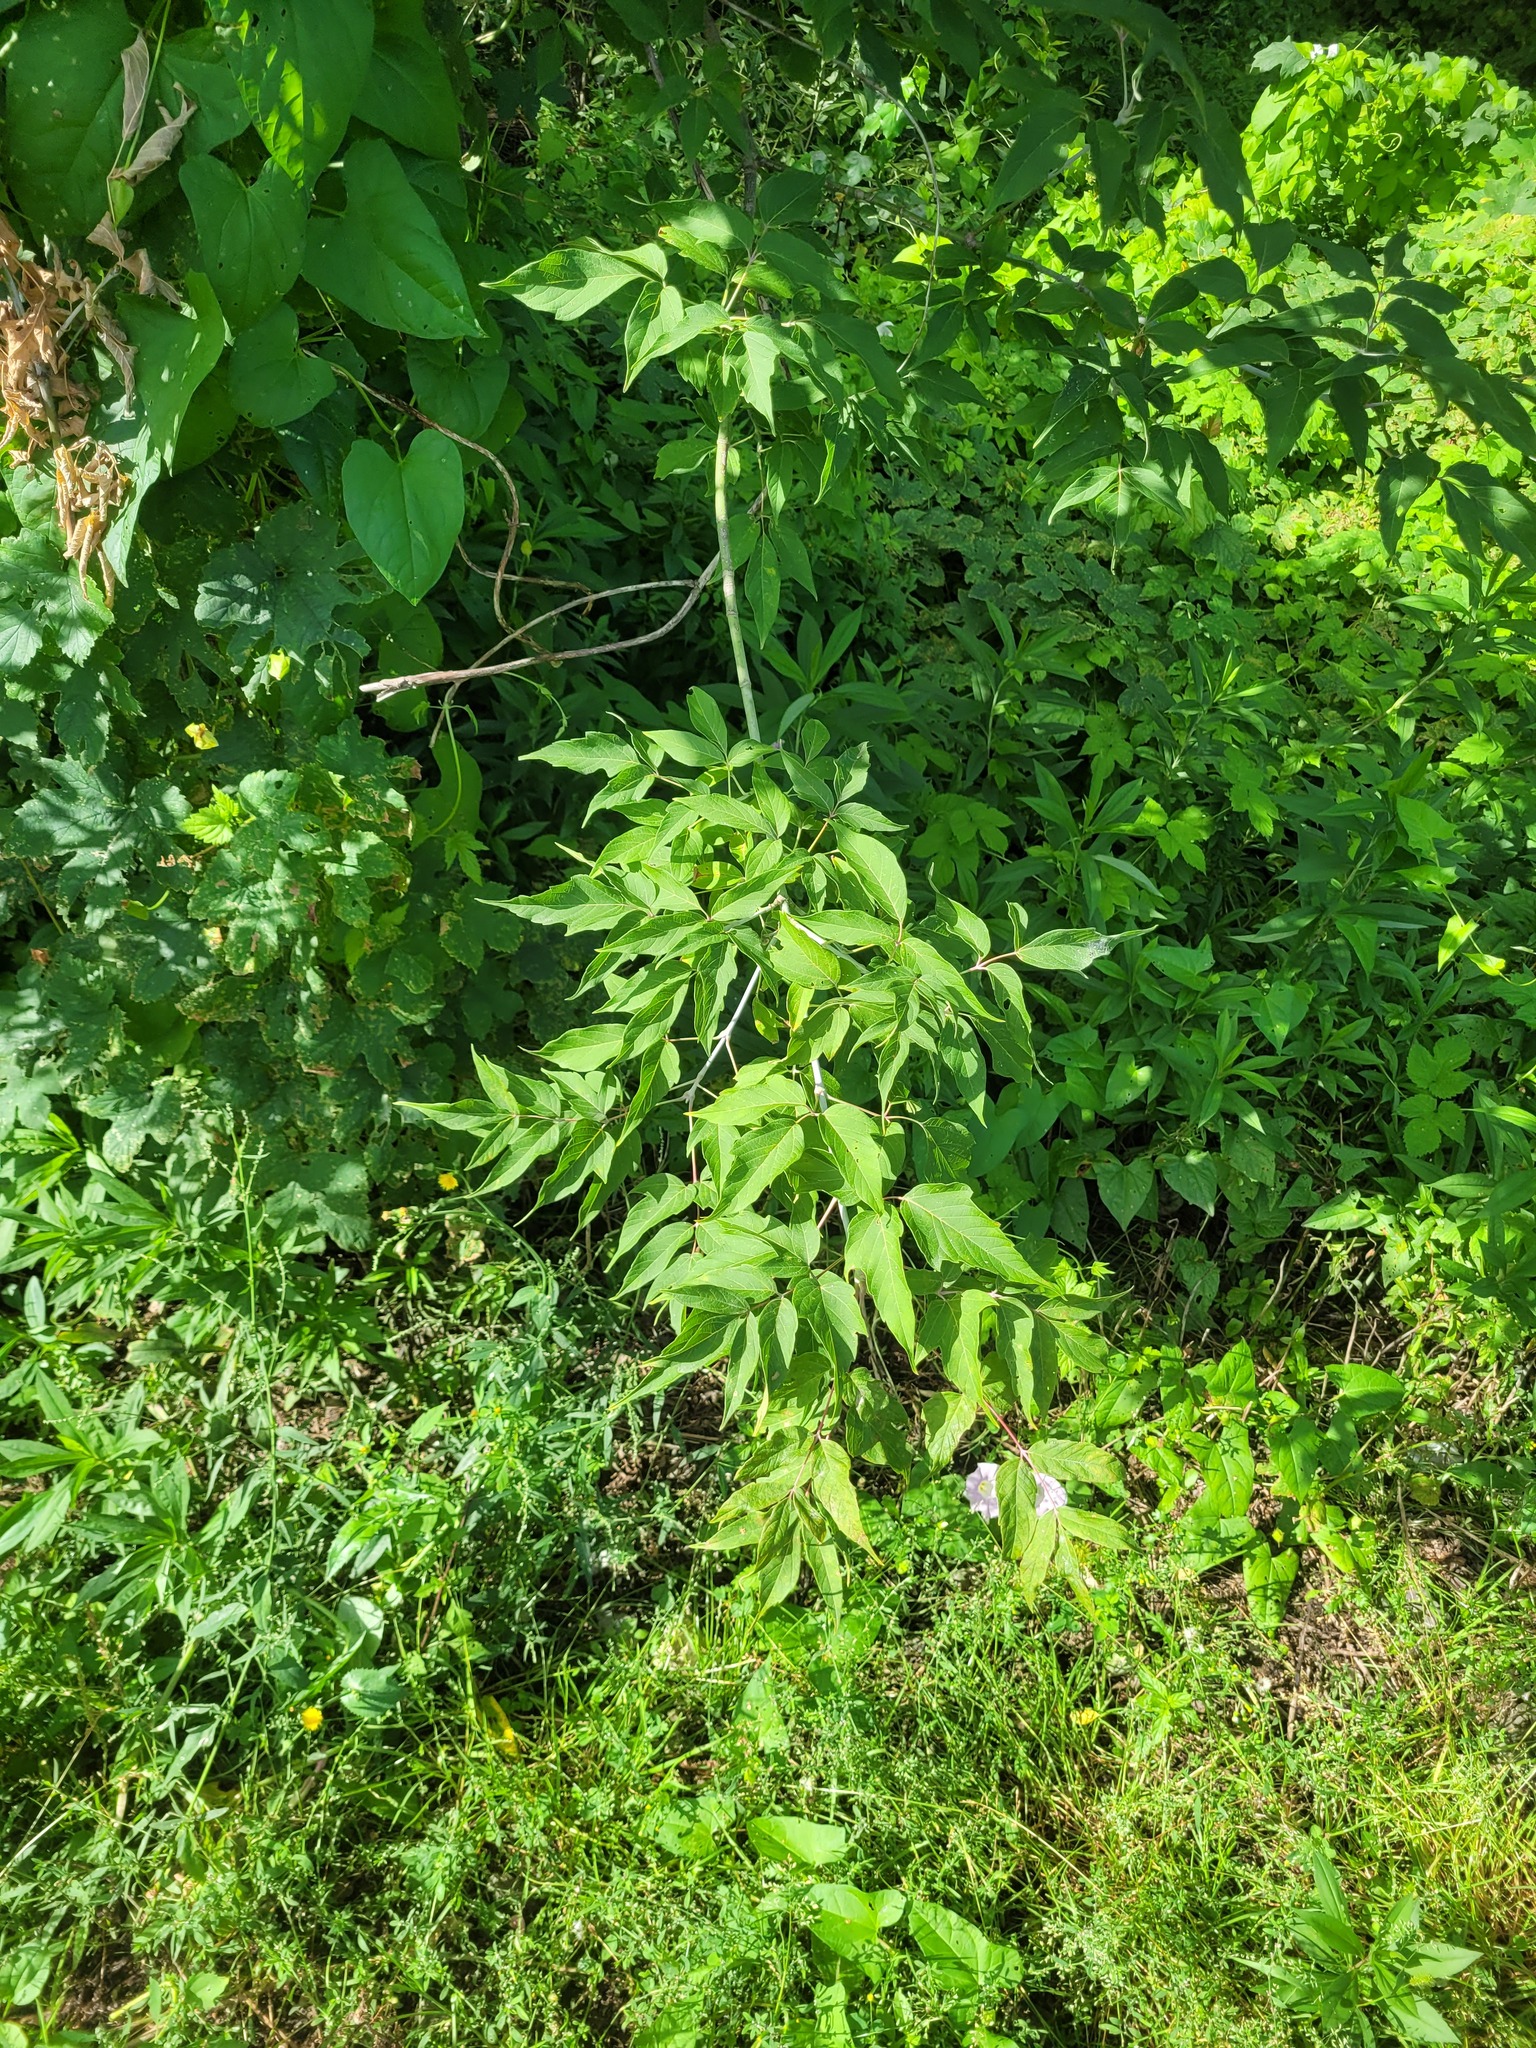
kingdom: Plantae
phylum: Tracheophyta
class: Magnoliopsida
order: Sapindales
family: Sapindaceae
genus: Acer
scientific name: Acer negundo
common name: Ashleaf maple
